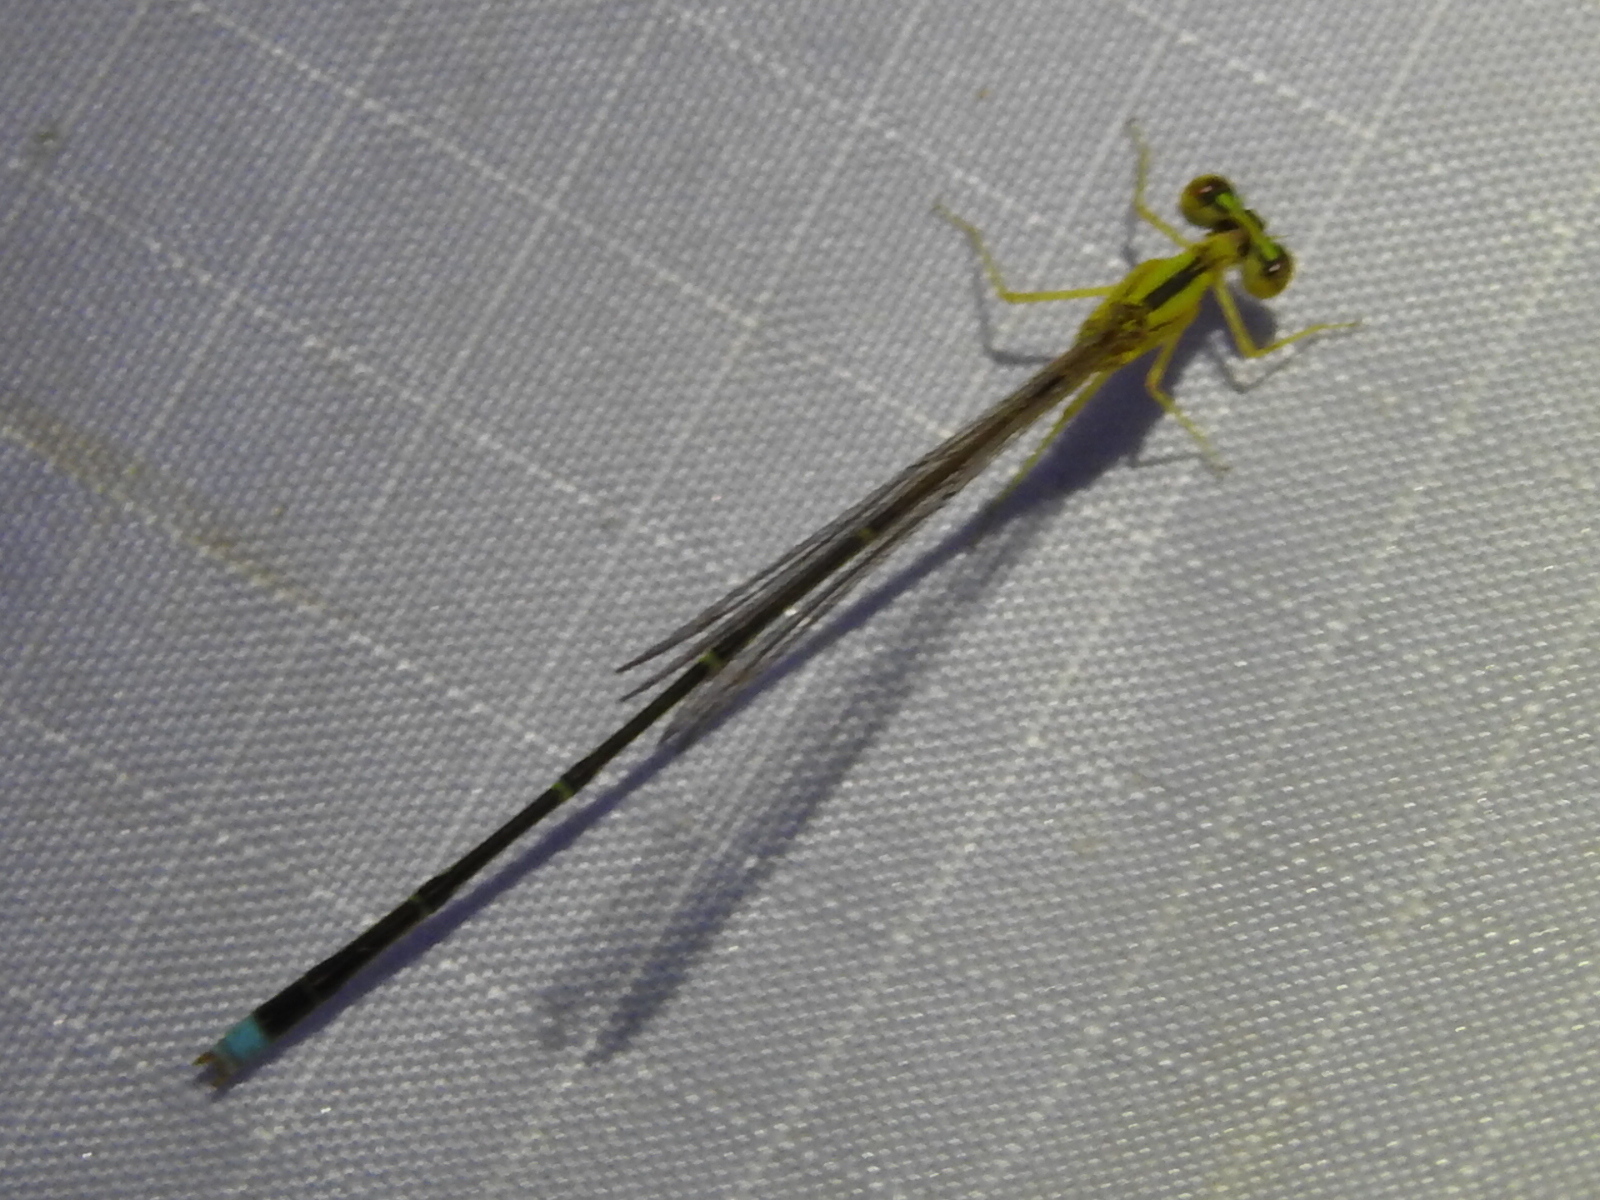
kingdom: Animalia
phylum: Arthropoda
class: Insecta
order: Odonata
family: Coenagrionidae
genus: Enallagma
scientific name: Enallagma vesperum
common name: Vesper bluet
